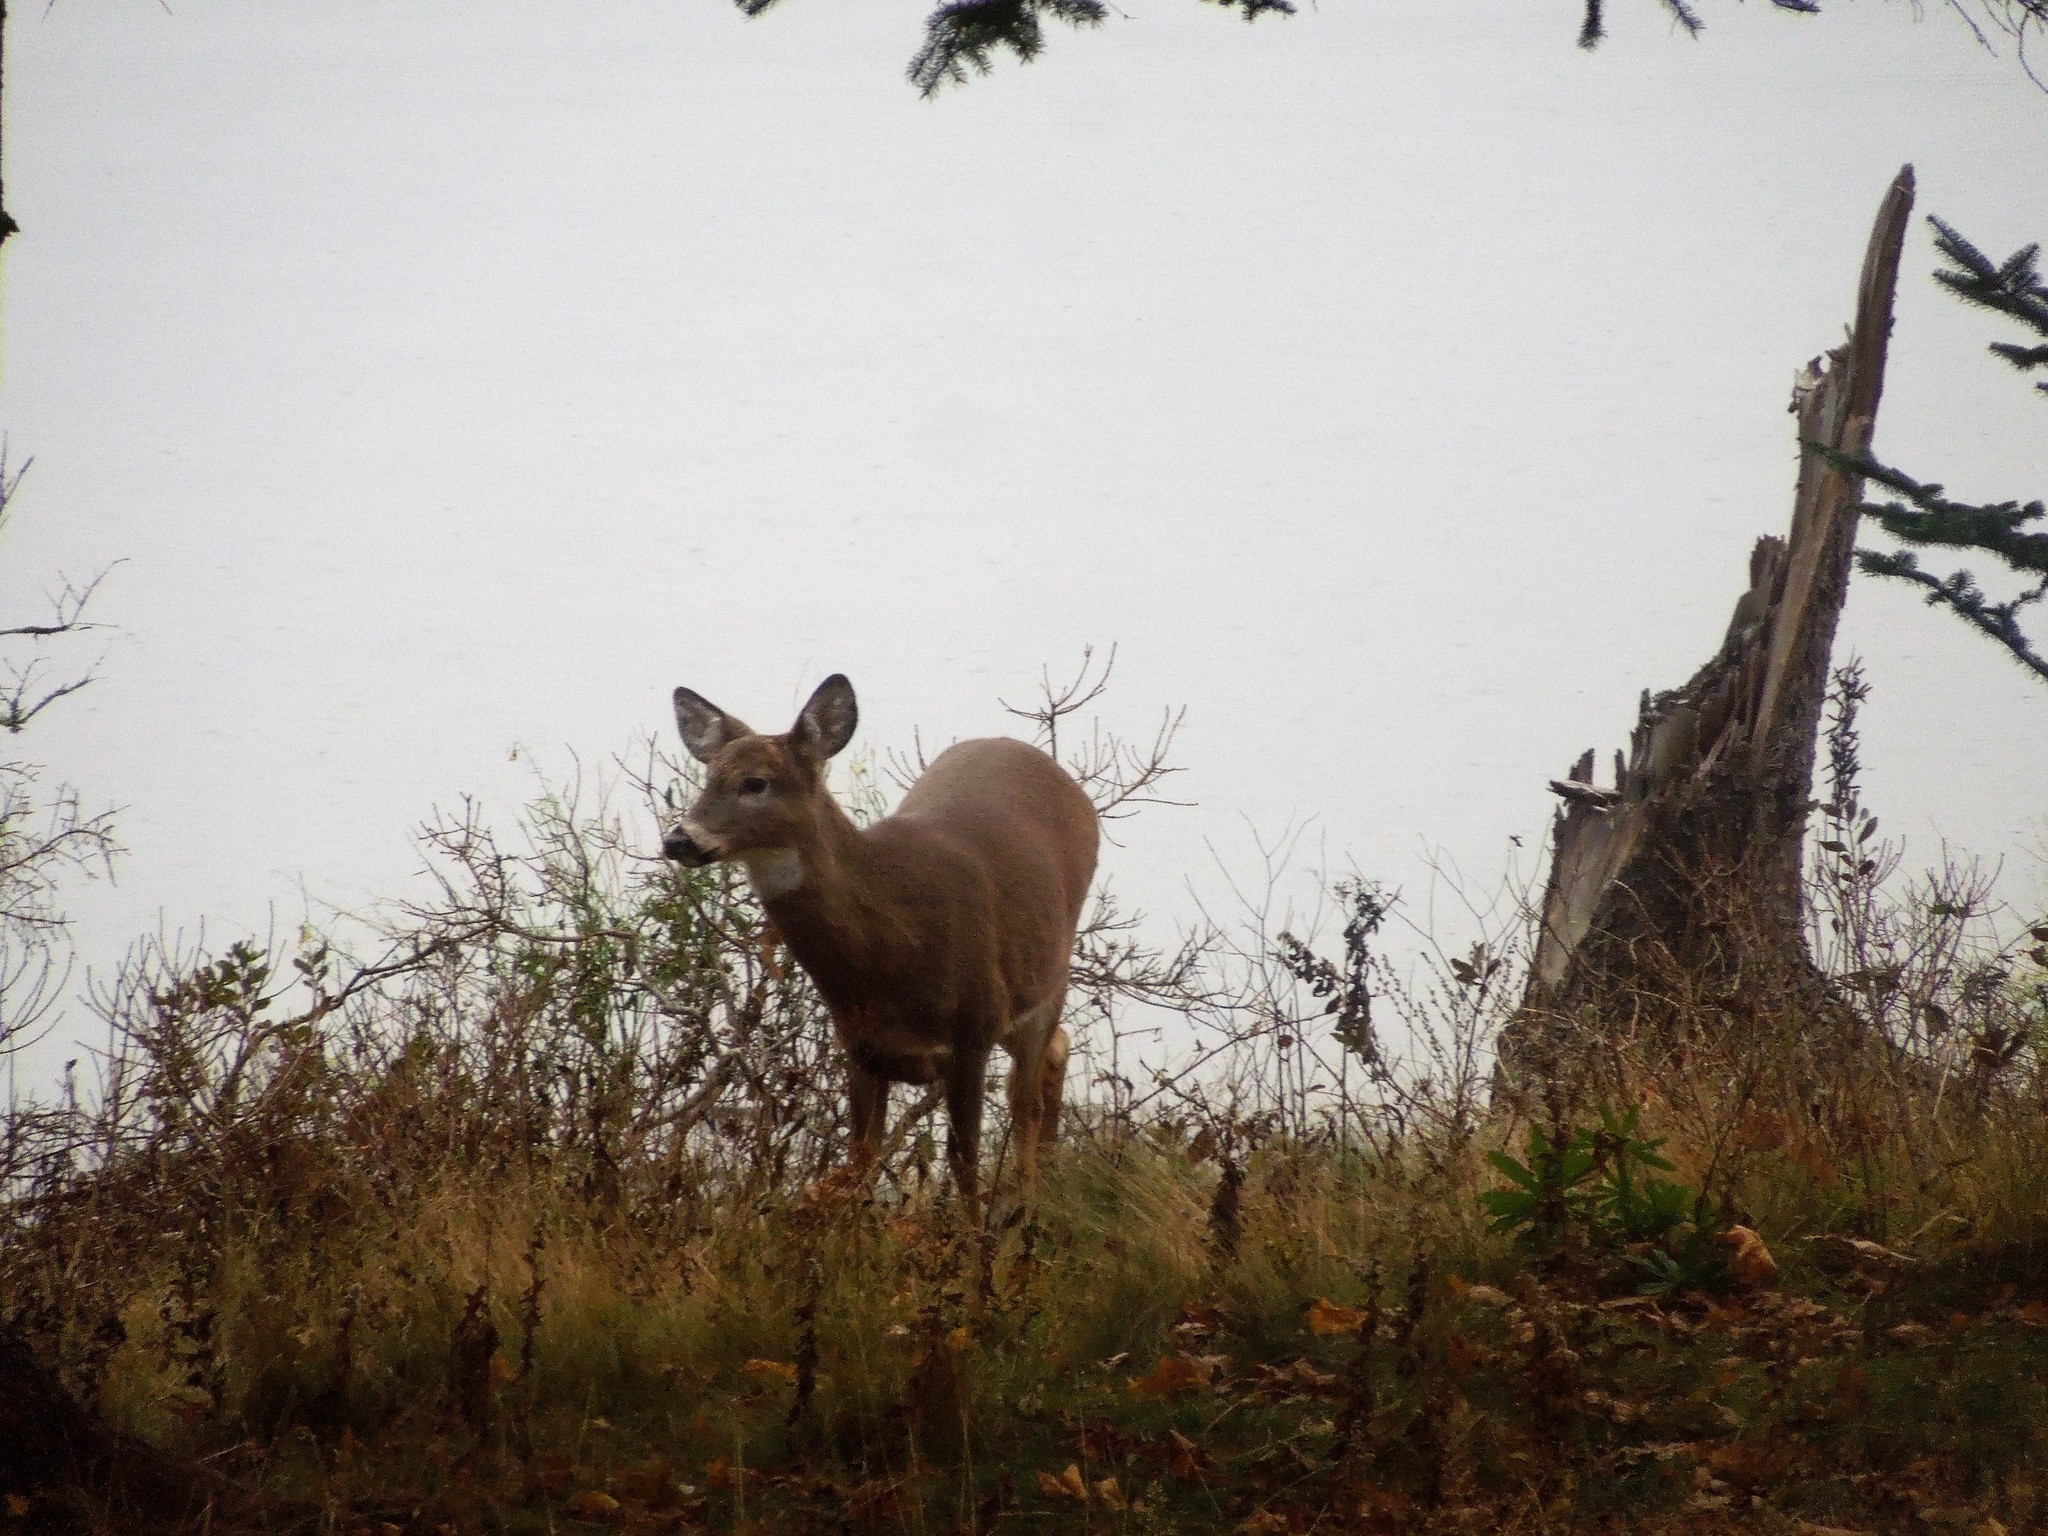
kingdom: Animalia
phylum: Chordata
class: Mammalia
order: Artiodactyla
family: Cervidae
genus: Odocoileus
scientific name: Odocoileus virginianus
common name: White-tailed deer
